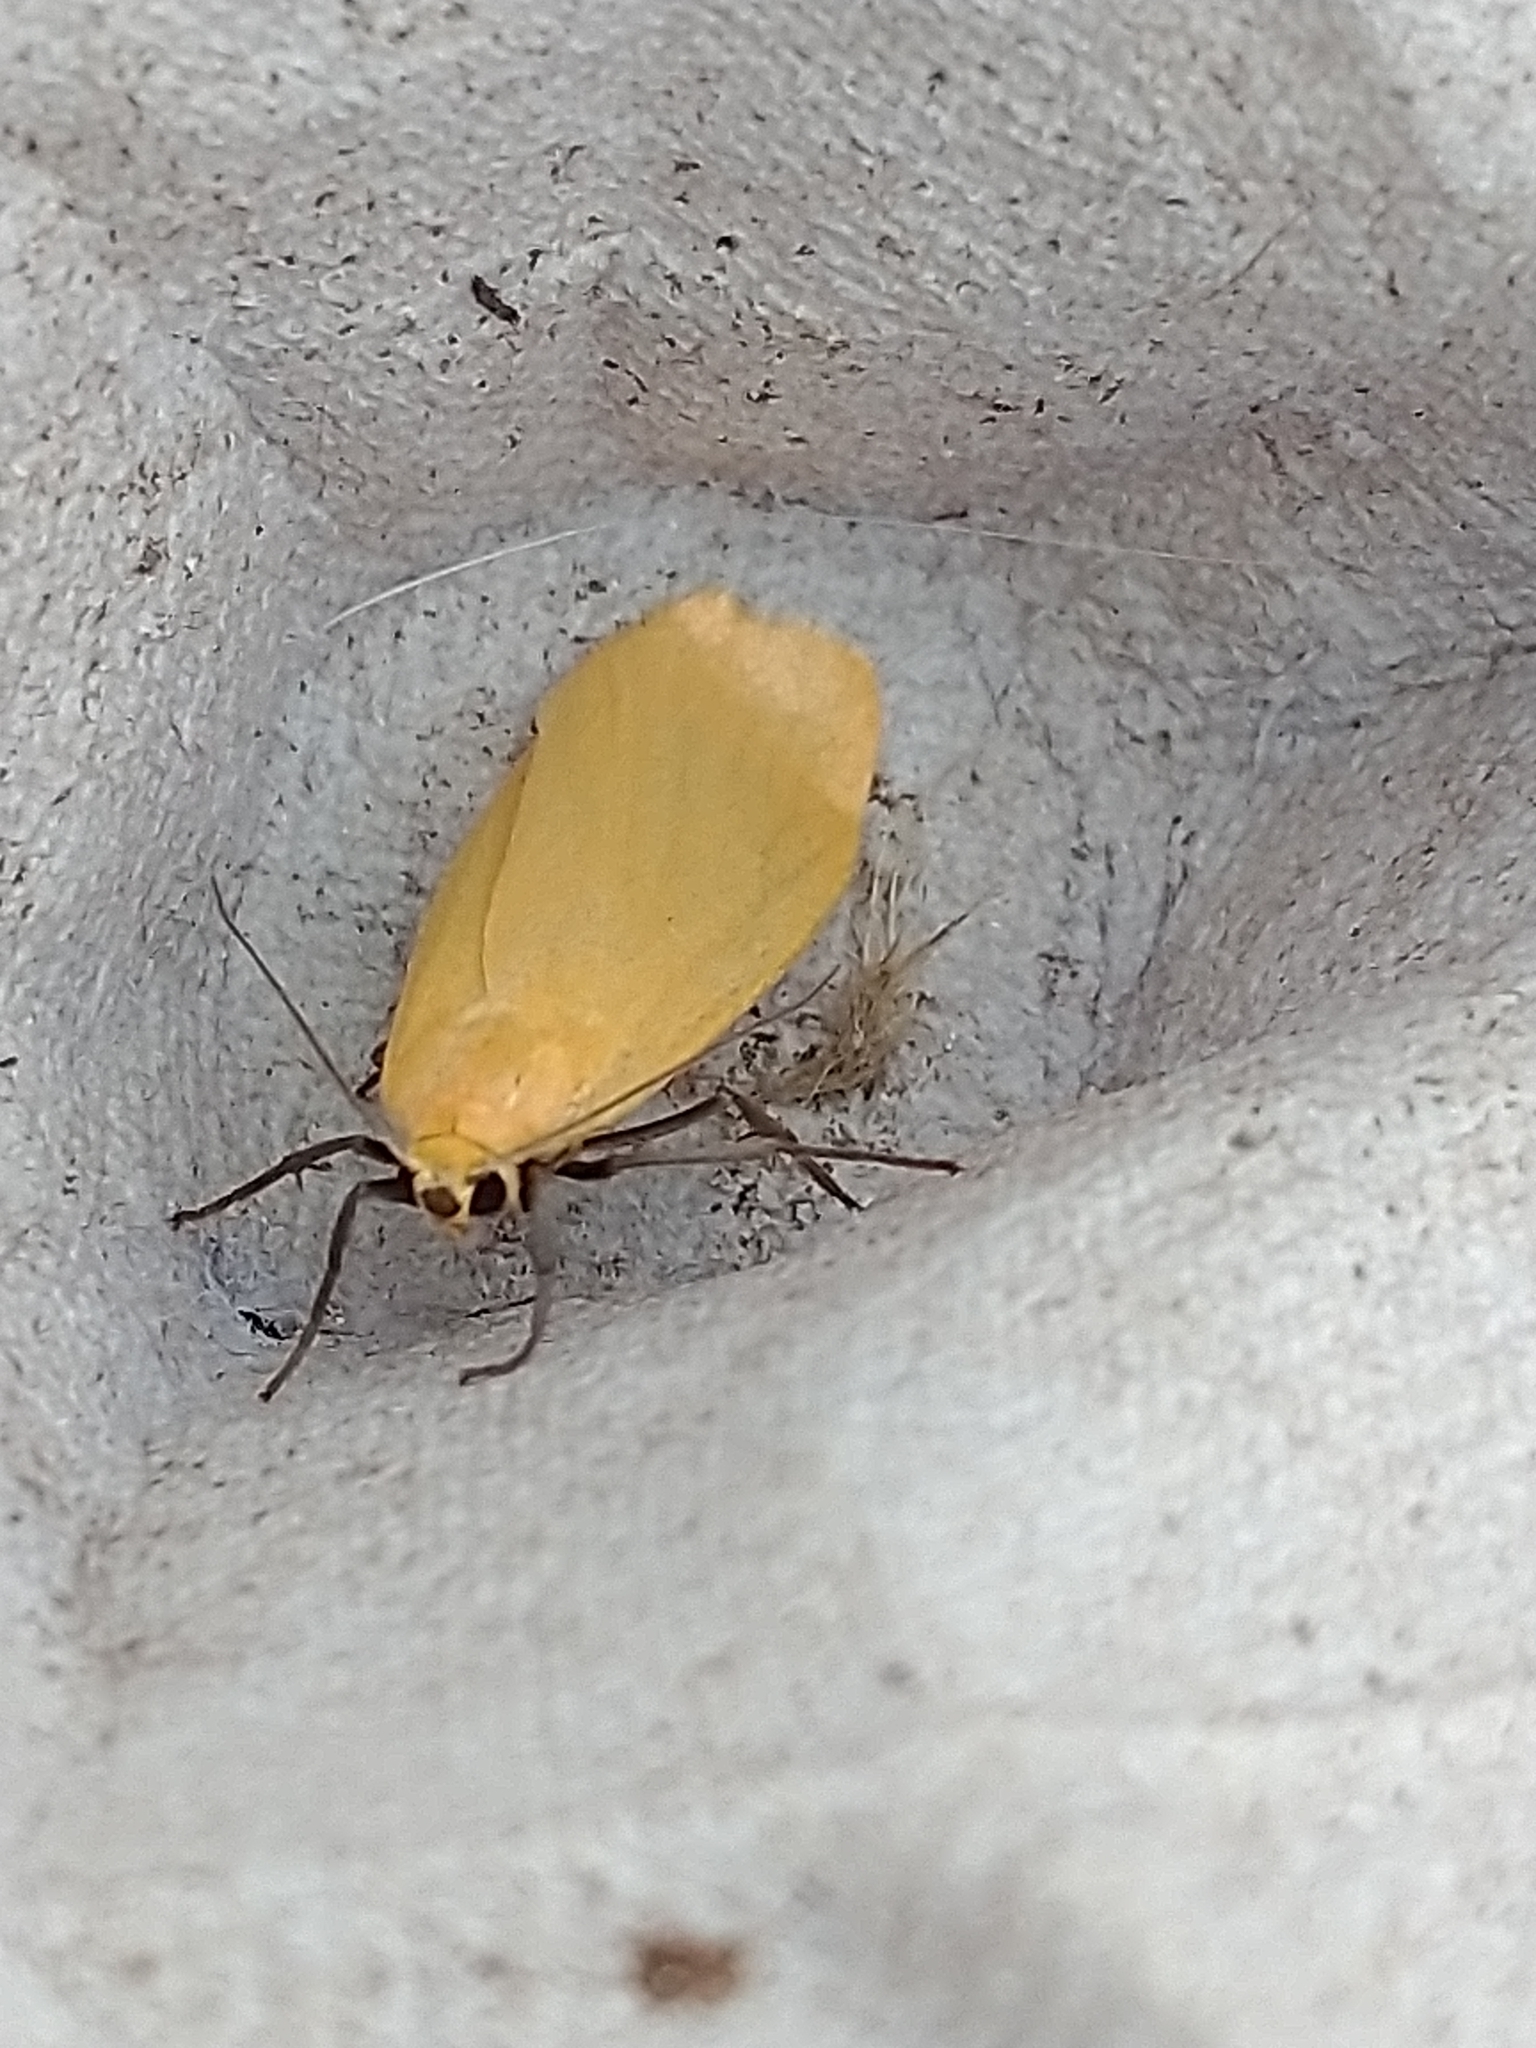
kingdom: Animalia
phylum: Arthropoda
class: Insecta
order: Lepidoptera
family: Erebidae
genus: Wittia
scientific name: Wittia sororcula
